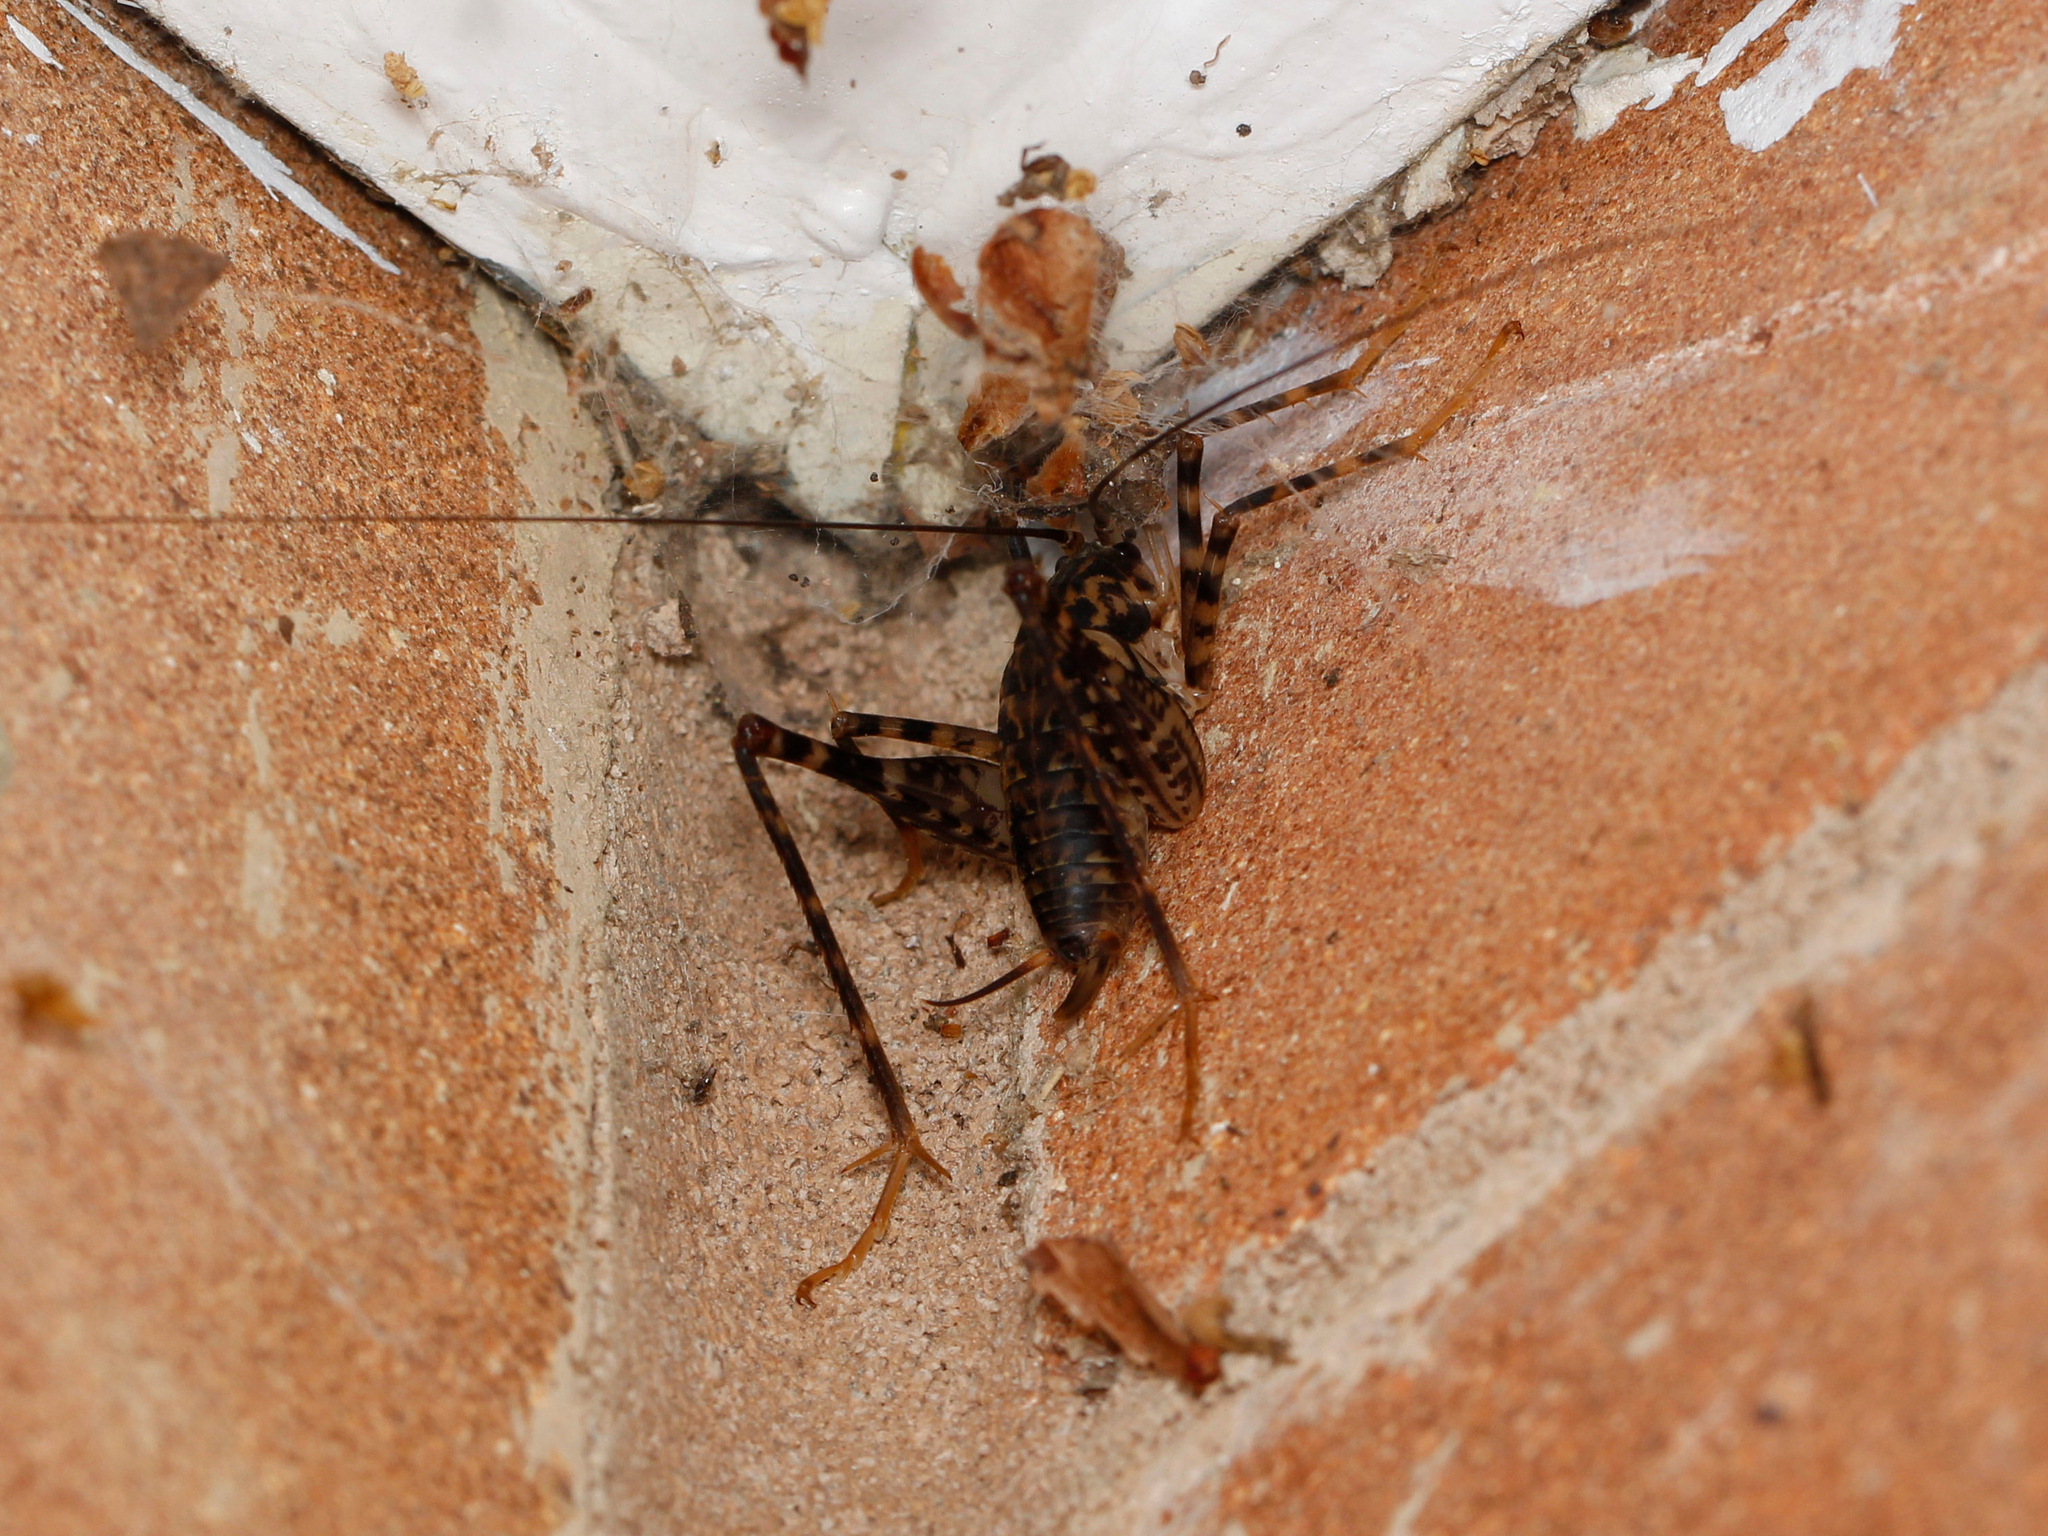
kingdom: Animalia
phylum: Arthropoda
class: Insecta
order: Orthoptera
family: Rhaphidophoridae
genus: Diestrammena
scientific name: Diestrammena japanica
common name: Japanese camel cricket
